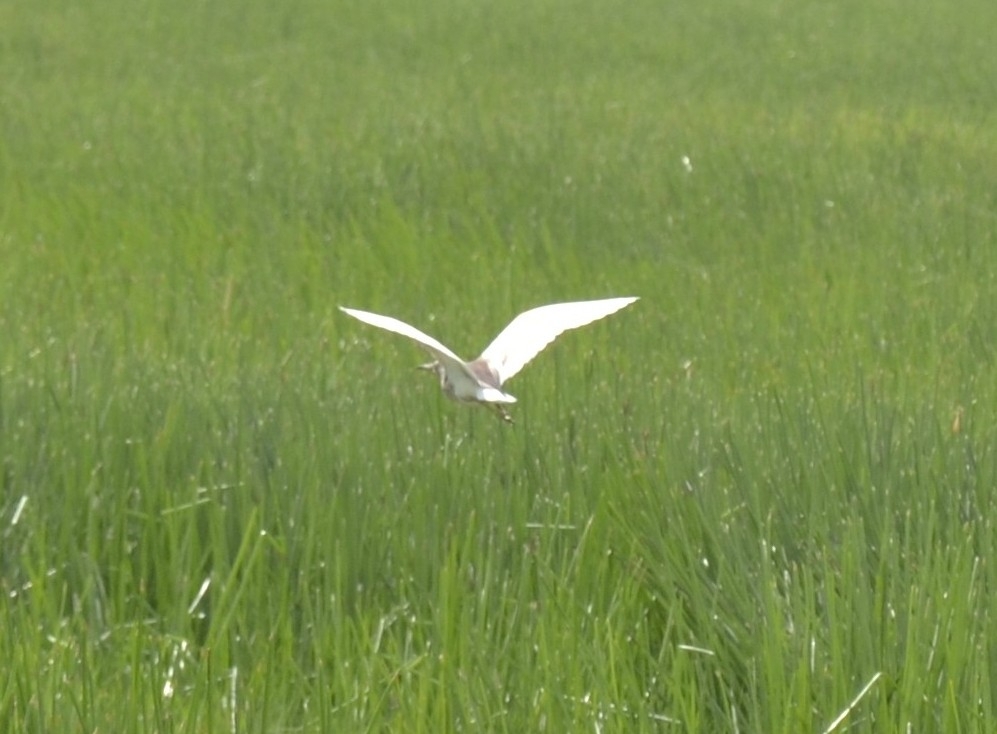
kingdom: Animalia
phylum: Chordata
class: Aves
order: Pelecaniformes
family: Ardeidae
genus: Ardeola
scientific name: Ardeola grayii
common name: Indian pond heron
